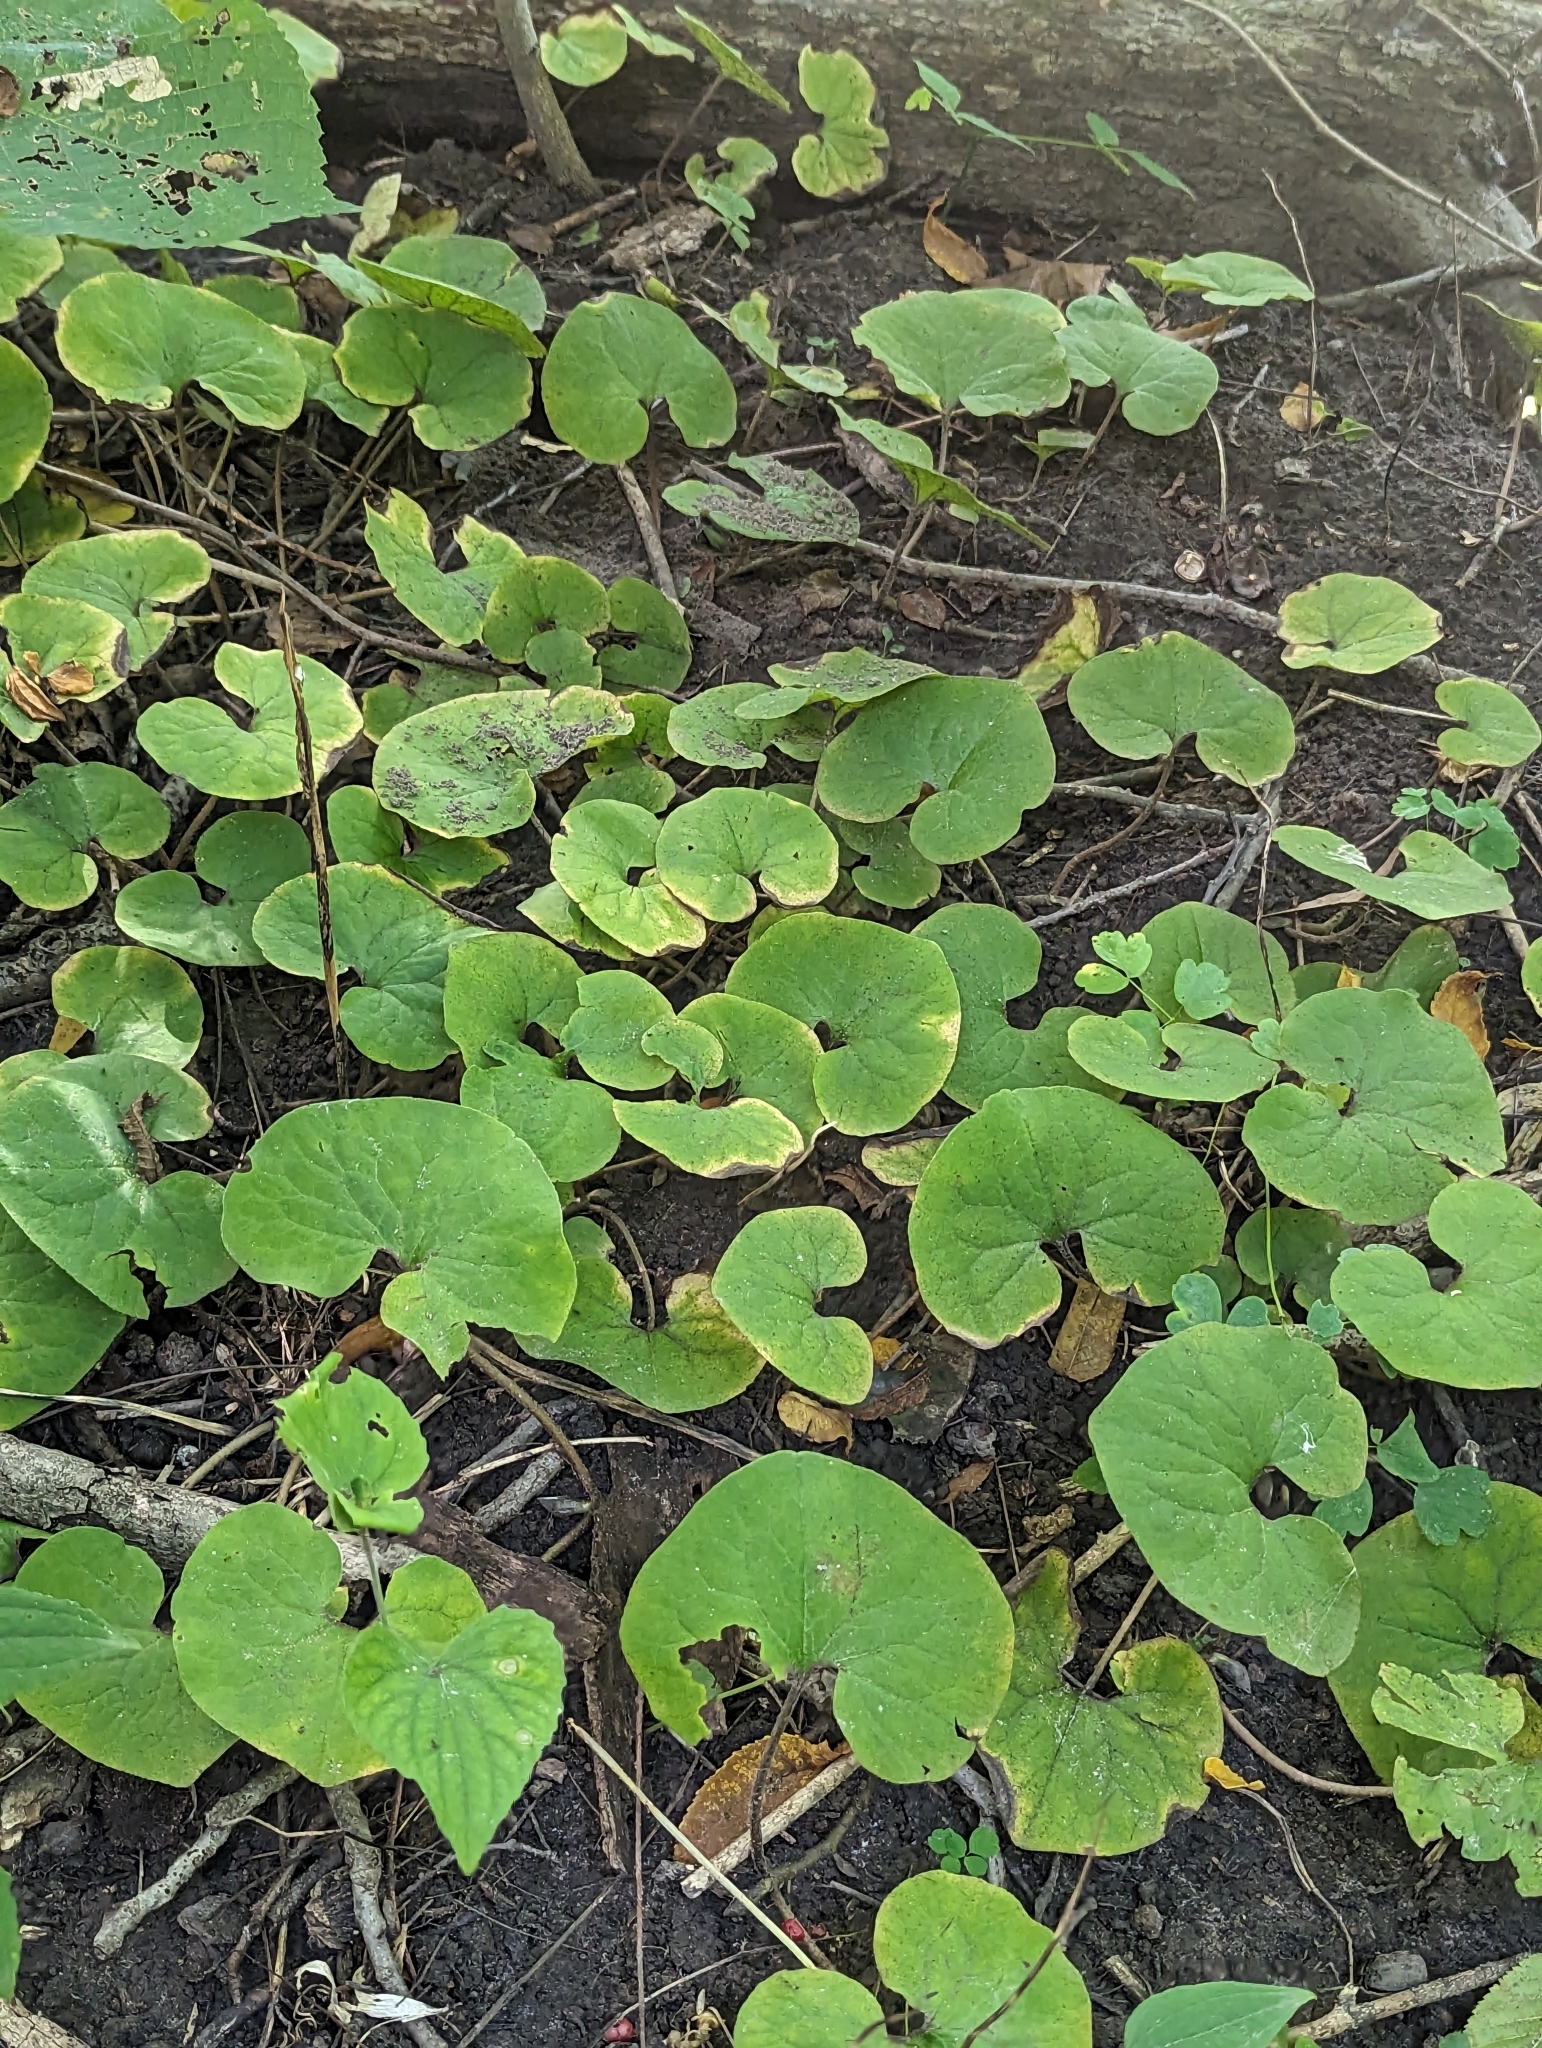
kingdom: Plantae
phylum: Tracheophyta
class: Magnoliopsida
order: Piperales
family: Aristolochiaceae
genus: Asarum
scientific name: Asarum canadense
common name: Wild ginger
